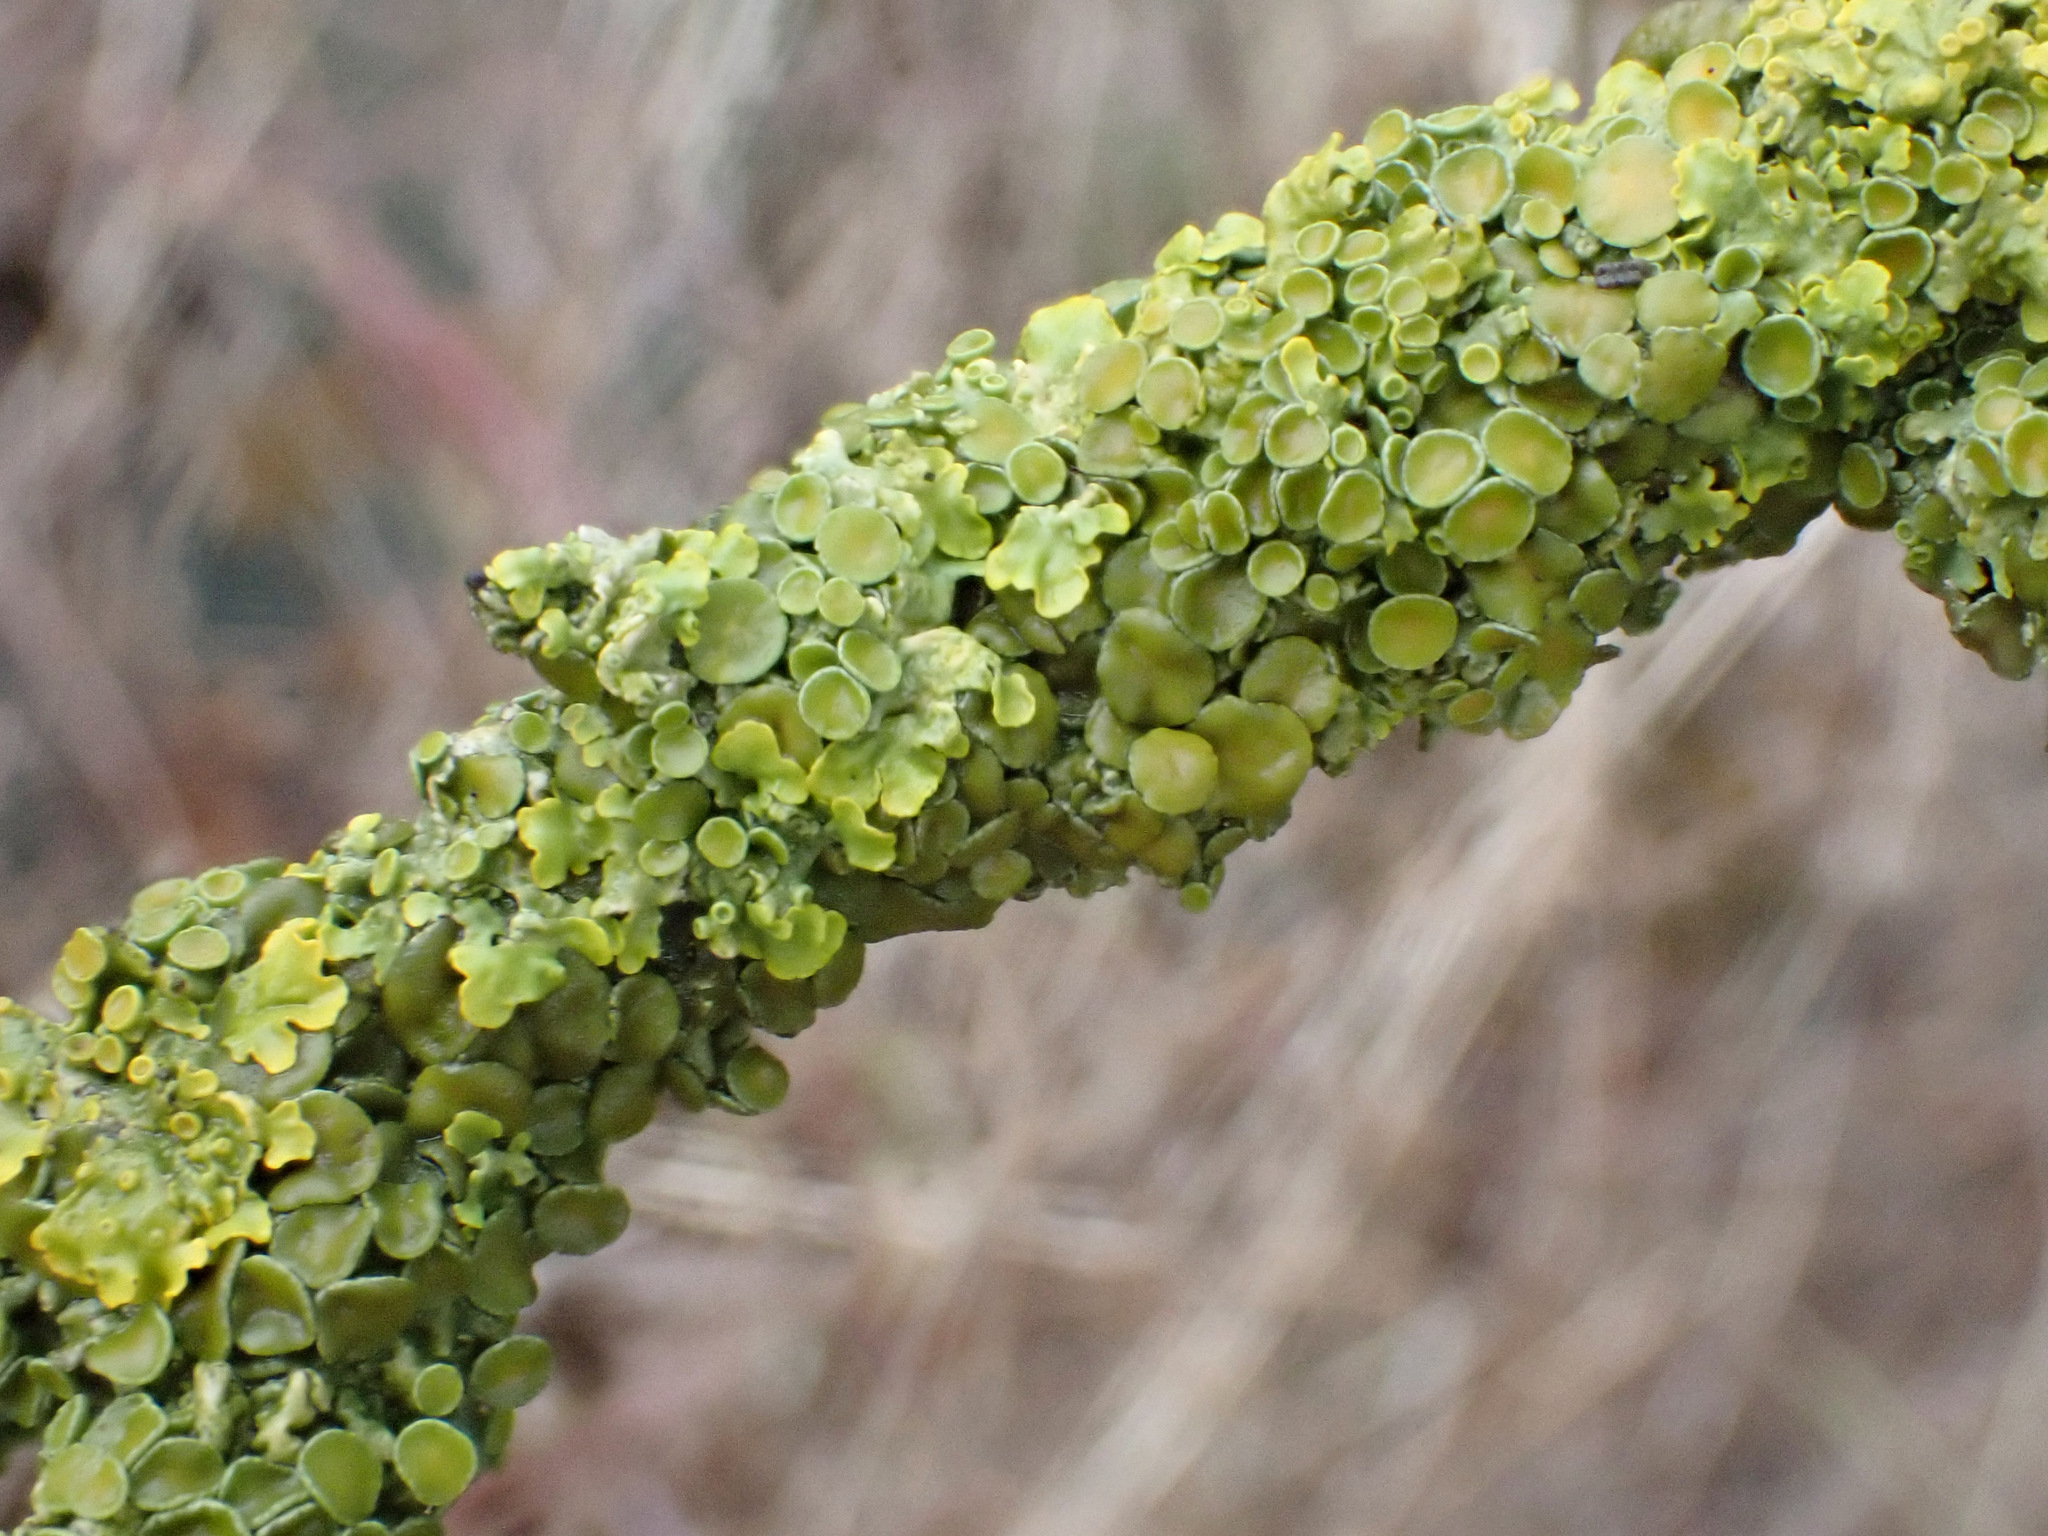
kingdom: Fungi
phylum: Ascomycota
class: Lecanoromycetes
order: Teloschistales
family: Teloschistaceae
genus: Xanthoria
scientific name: Xanthoria parietina
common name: Common orange lichen
